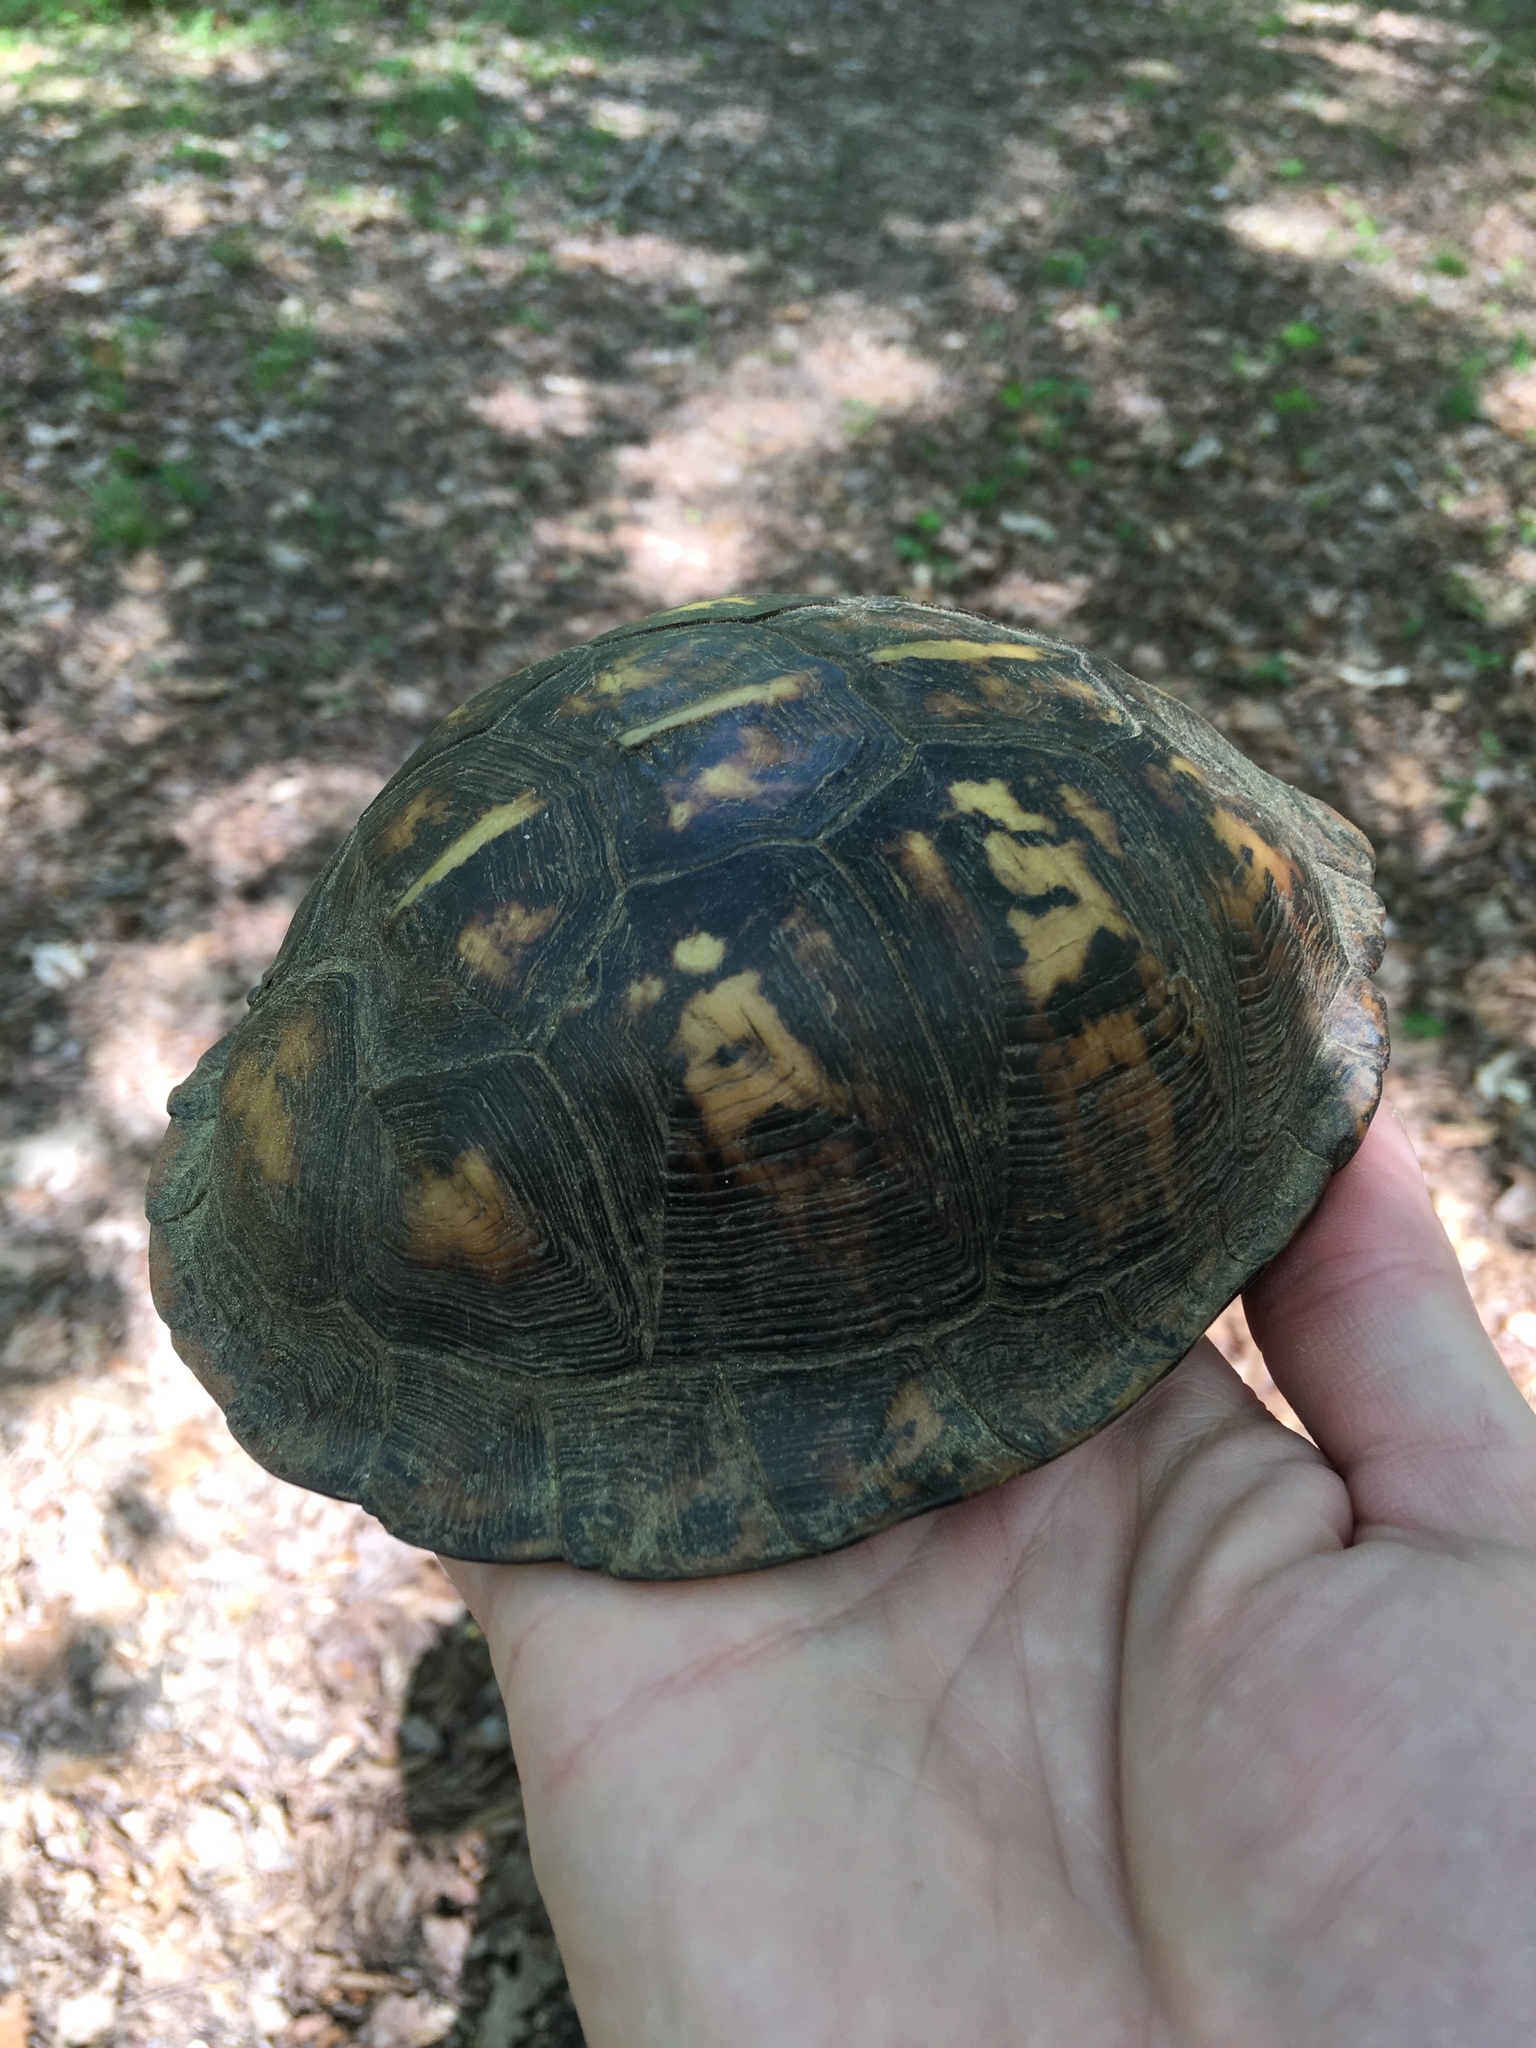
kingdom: Animalia
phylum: Chordata
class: Testudines
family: Emydidae
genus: Terrapene
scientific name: Terrapene carolina
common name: Common box turtle
